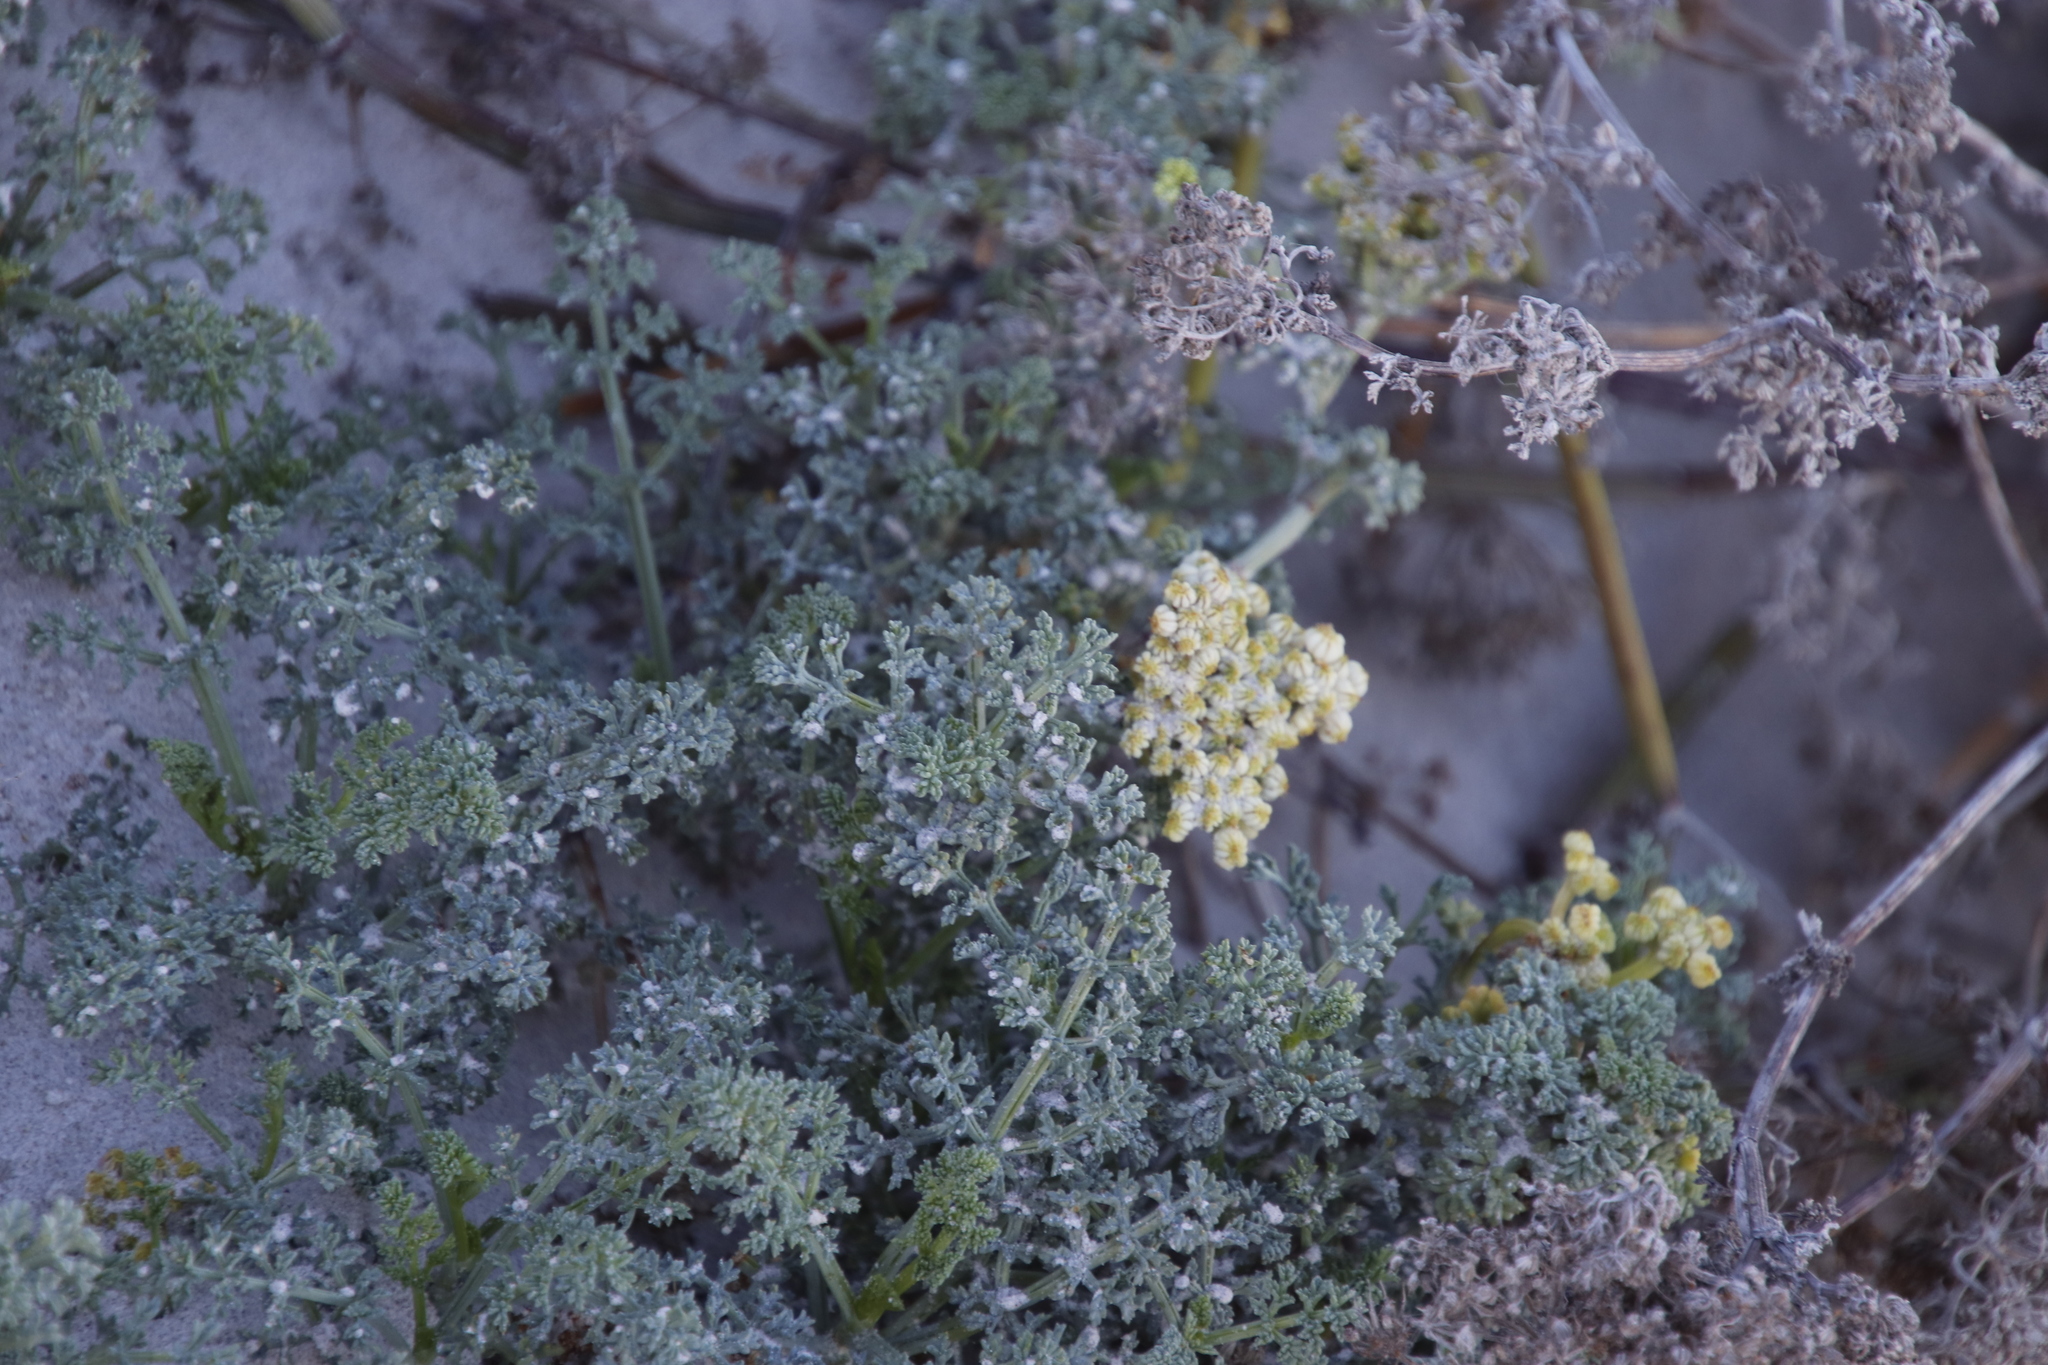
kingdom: Plantae
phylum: Tracheophyta
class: Magnoliopsida
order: Apiales
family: Apiaceae
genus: Dasispermum
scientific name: Dasispermum suffruticosum
